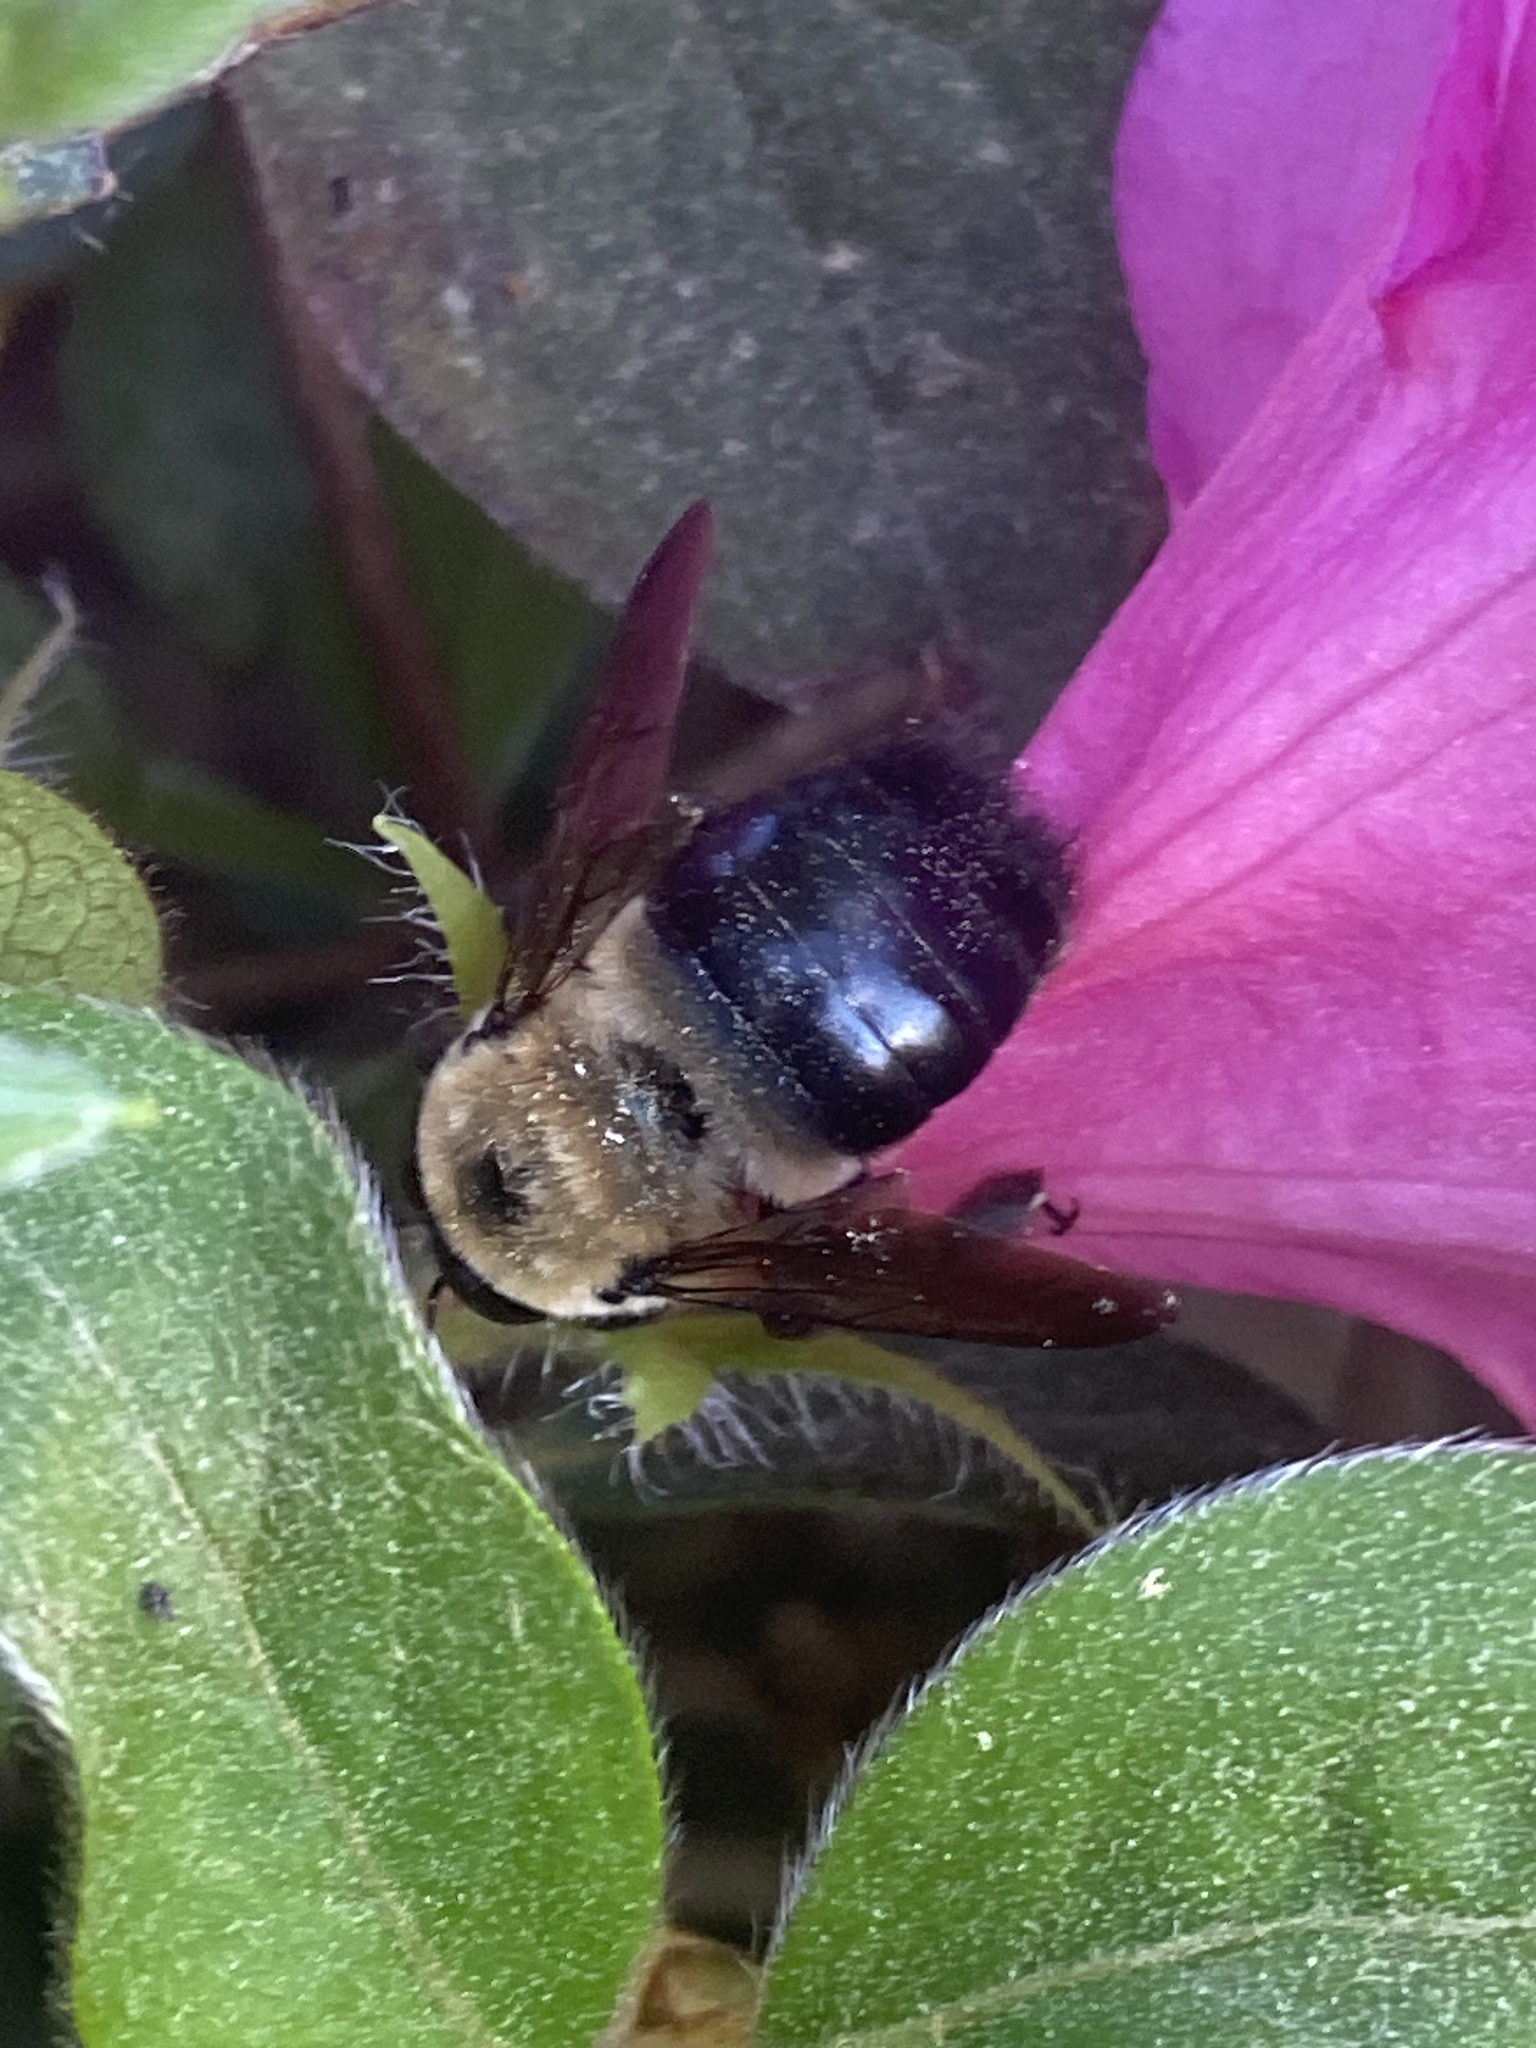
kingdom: Animalia
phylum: Arthropoda
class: Insecta
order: Hymenoptera
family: Apidae
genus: Xylocopa
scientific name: Xylocopa virginica
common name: Carpenter bee
